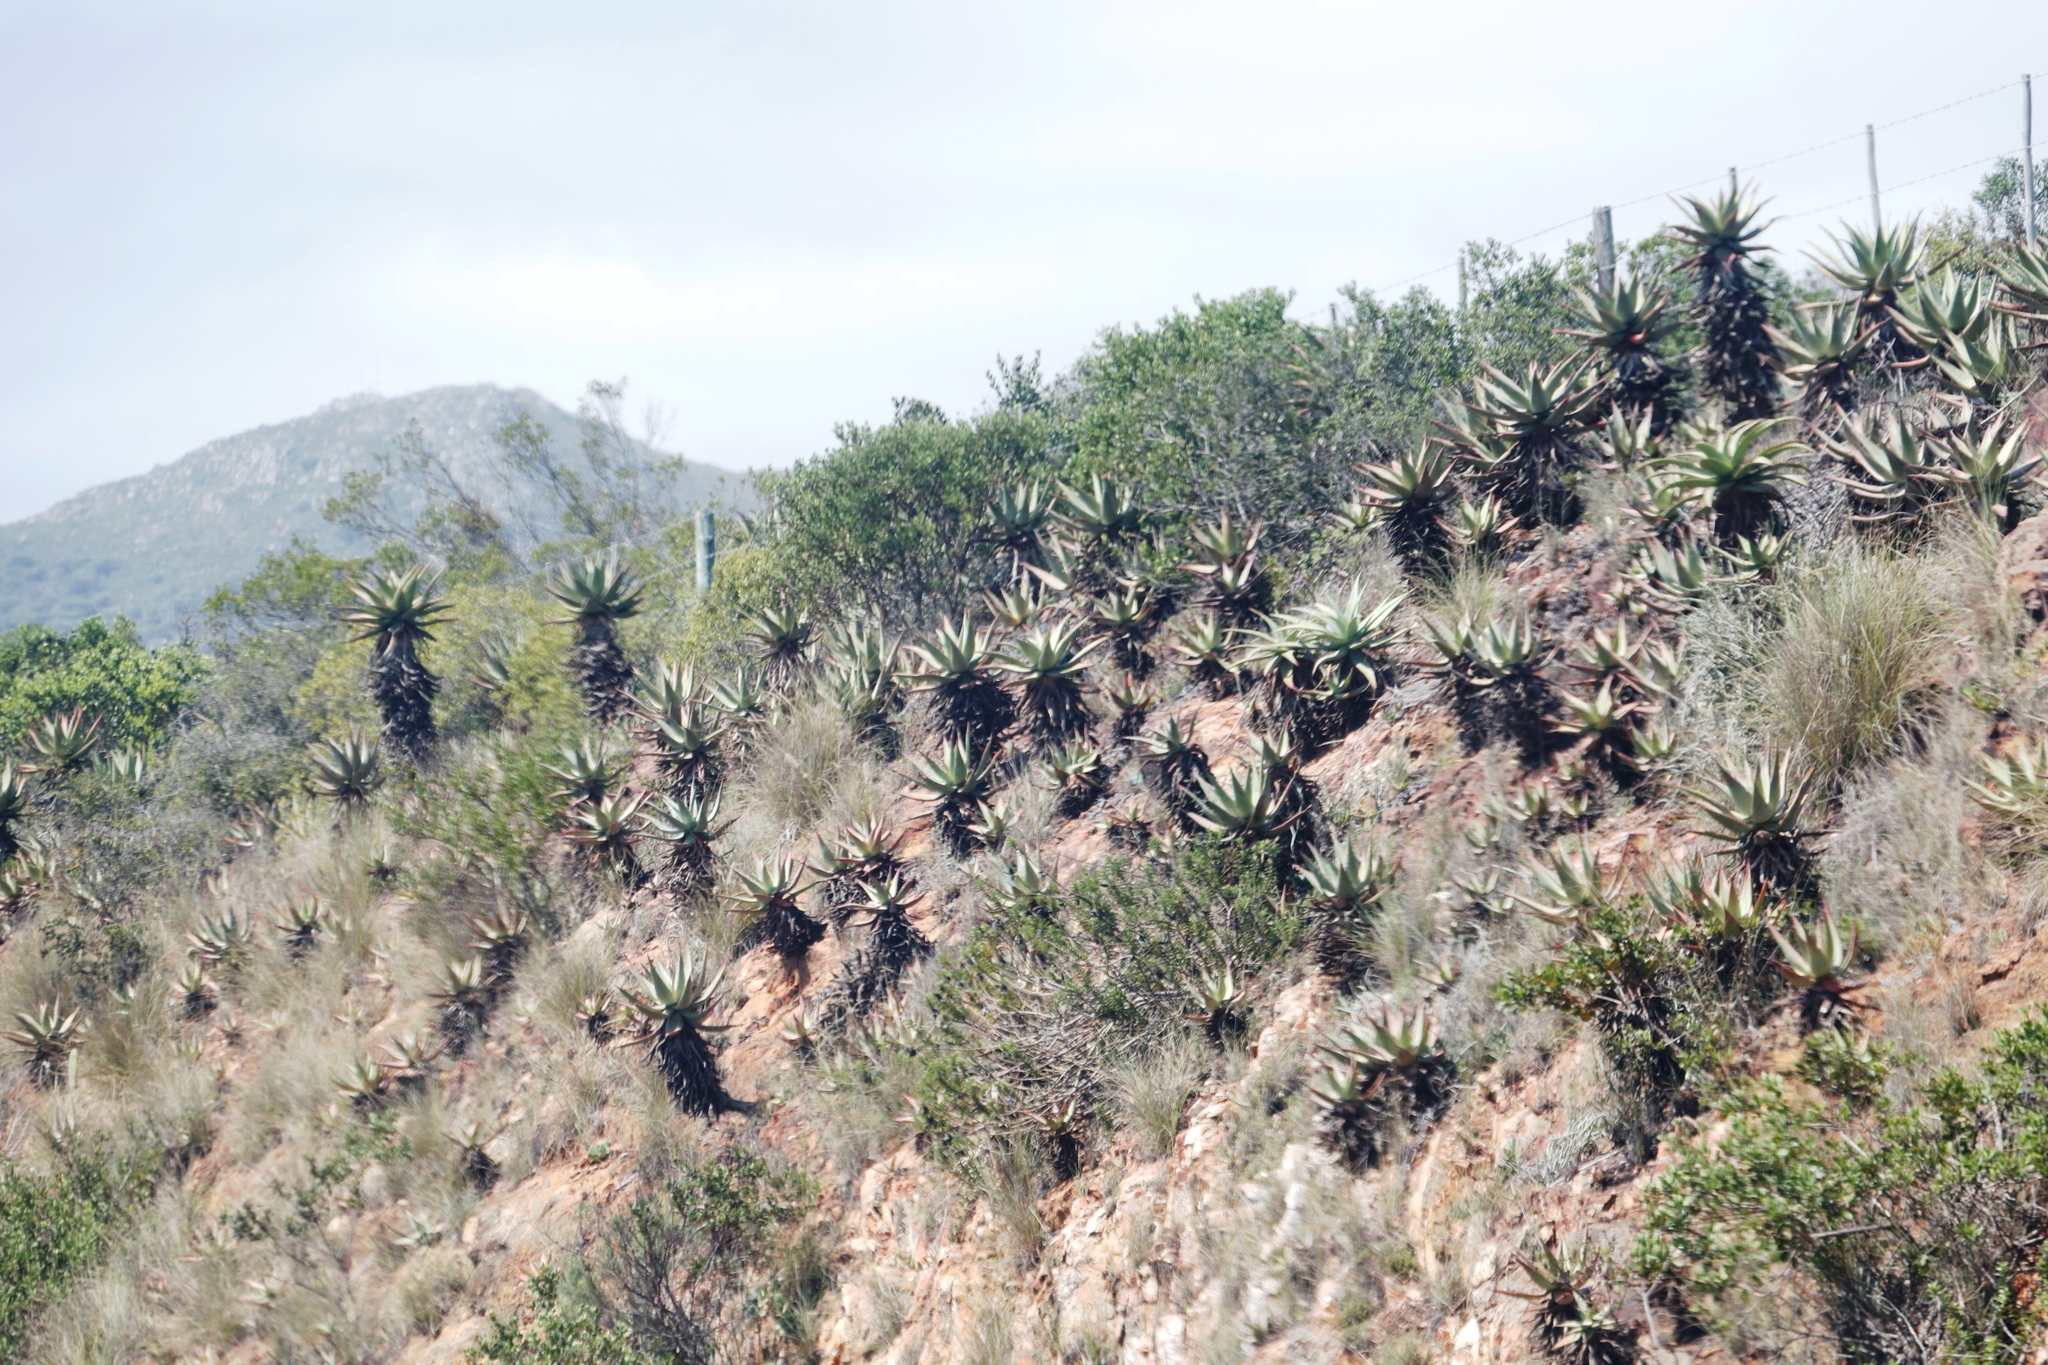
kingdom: Plantae
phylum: Tracheophyta
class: Liliopsida
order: Asparagales
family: Asphodelaceae
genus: Aloe
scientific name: Aloe ferox
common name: Bitter aloe
